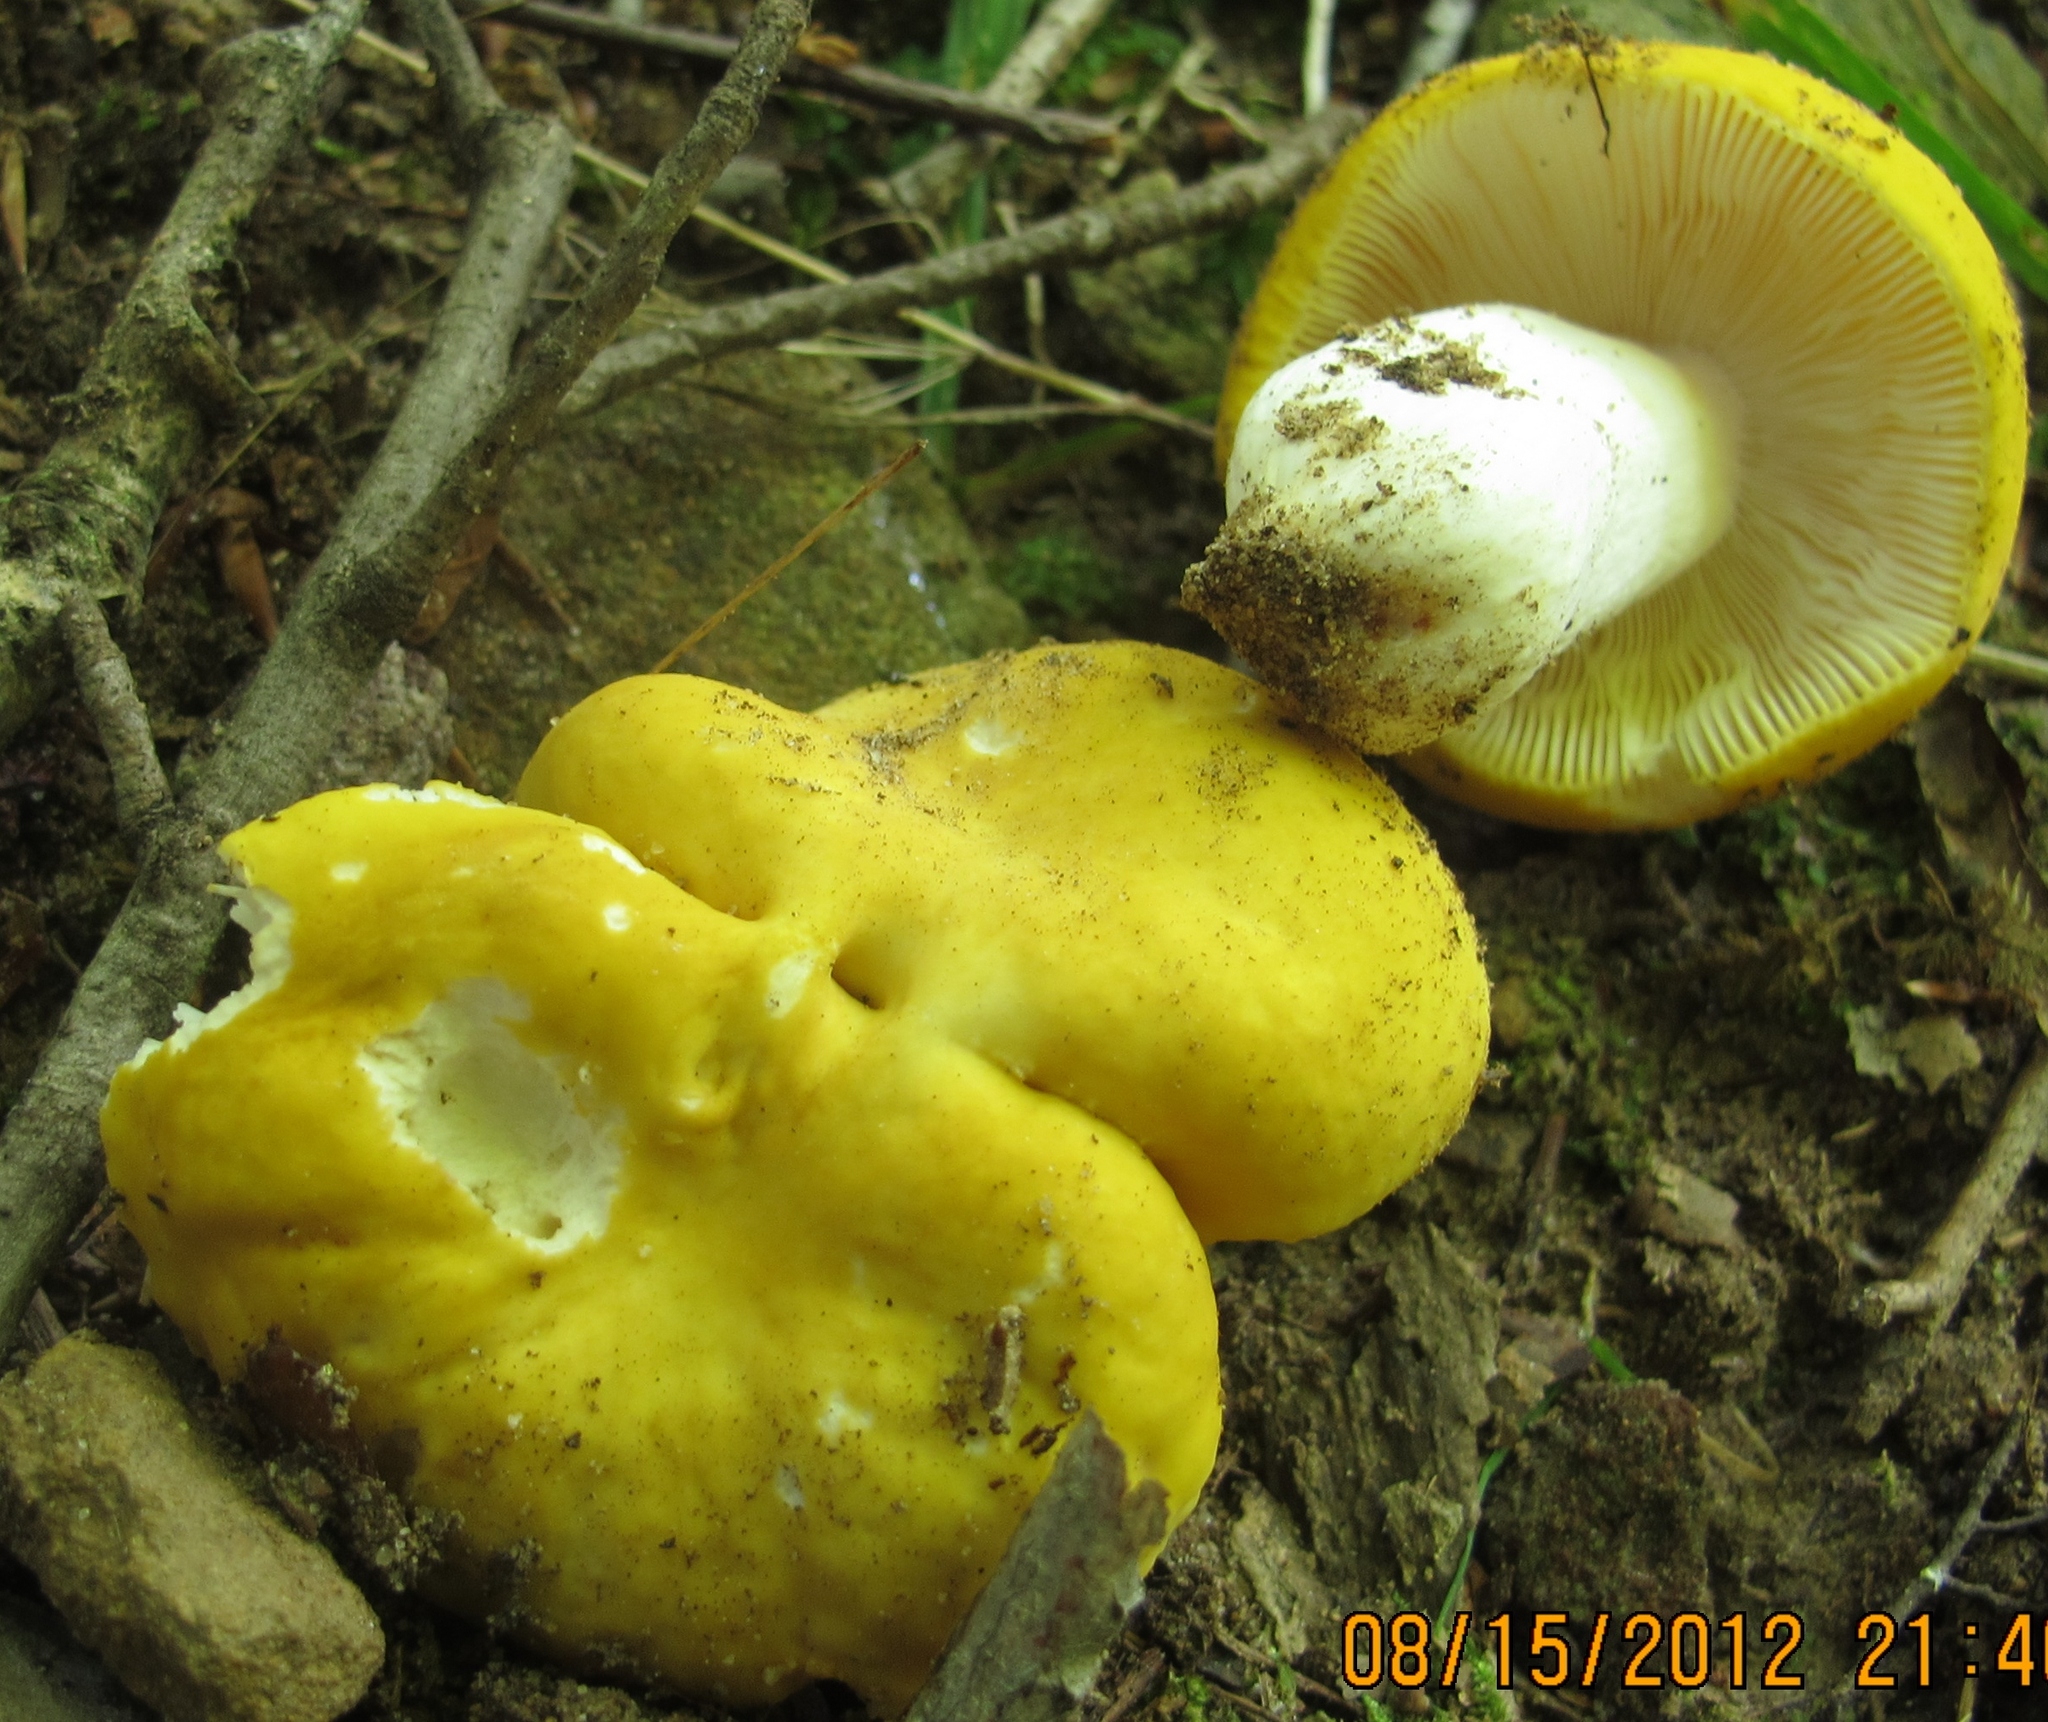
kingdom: Fungi
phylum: Basidiomycota
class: Agaricomycetes
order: Russulales
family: Russulaceae
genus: Russula
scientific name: Russula ochroleucoides
